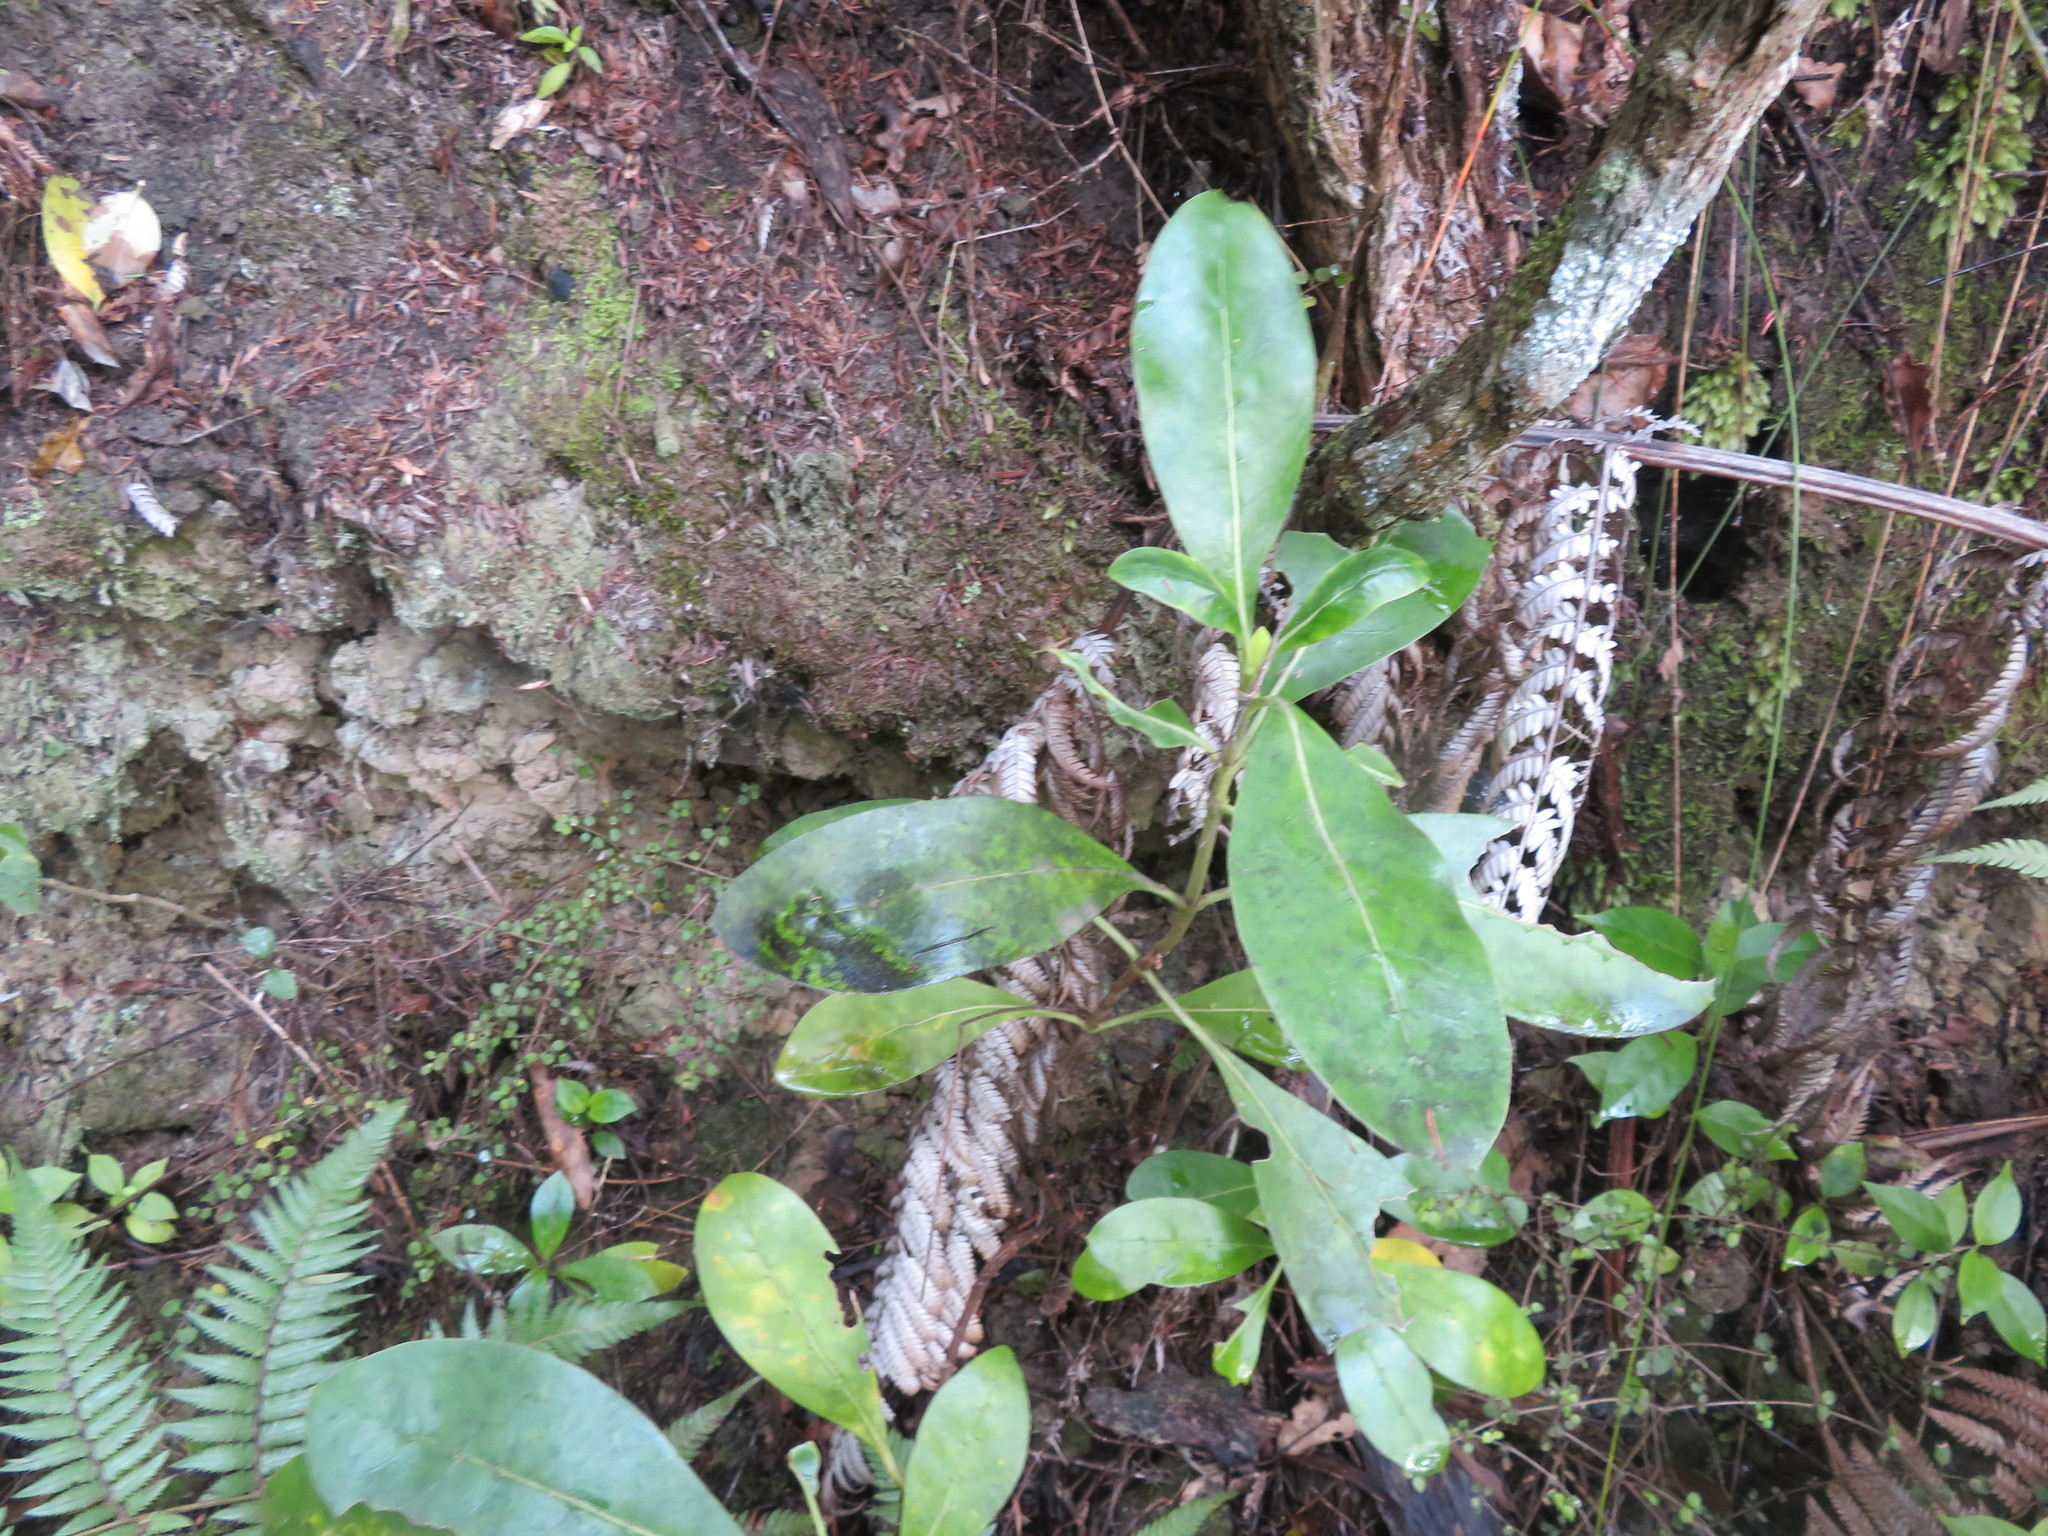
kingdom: Plantae
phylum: Tracheophyta
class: Magnoliopsida
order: Gentianales
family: Rubiaceae
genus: Coprosma
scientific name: Coprosma lucida
